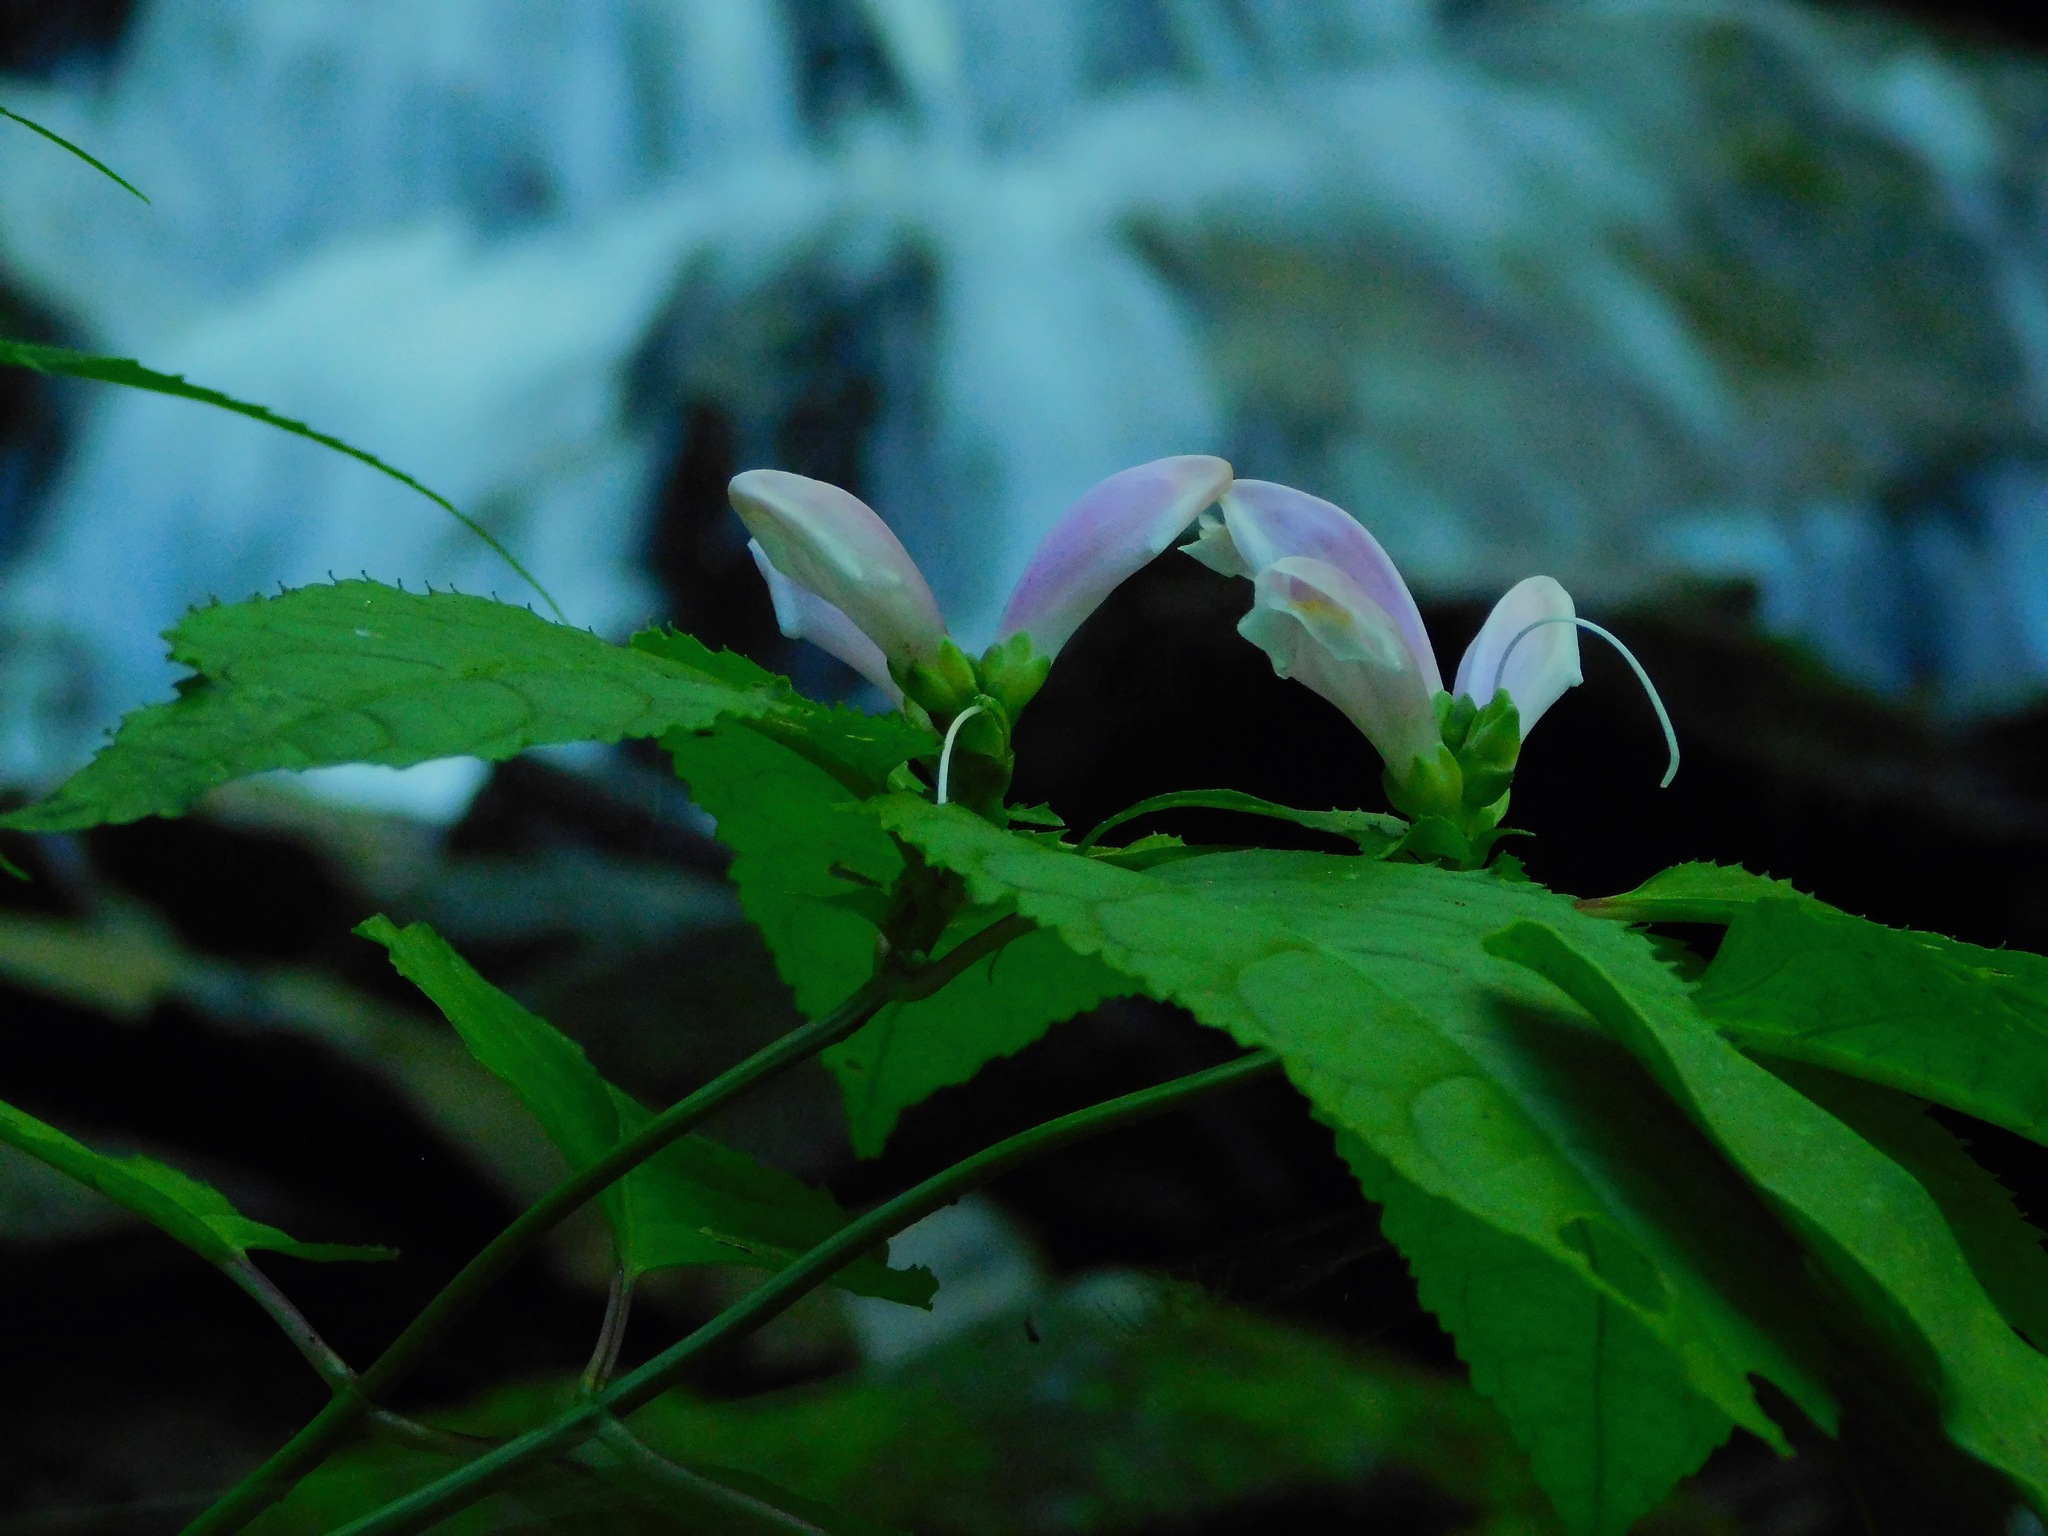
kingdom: Plantae
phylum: Tracheophyta
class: Magnoliopsida
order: Lamiales
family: Plantaginaceae
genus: Chelone
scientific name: Chelone lyonii
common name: Pink turtlehead
